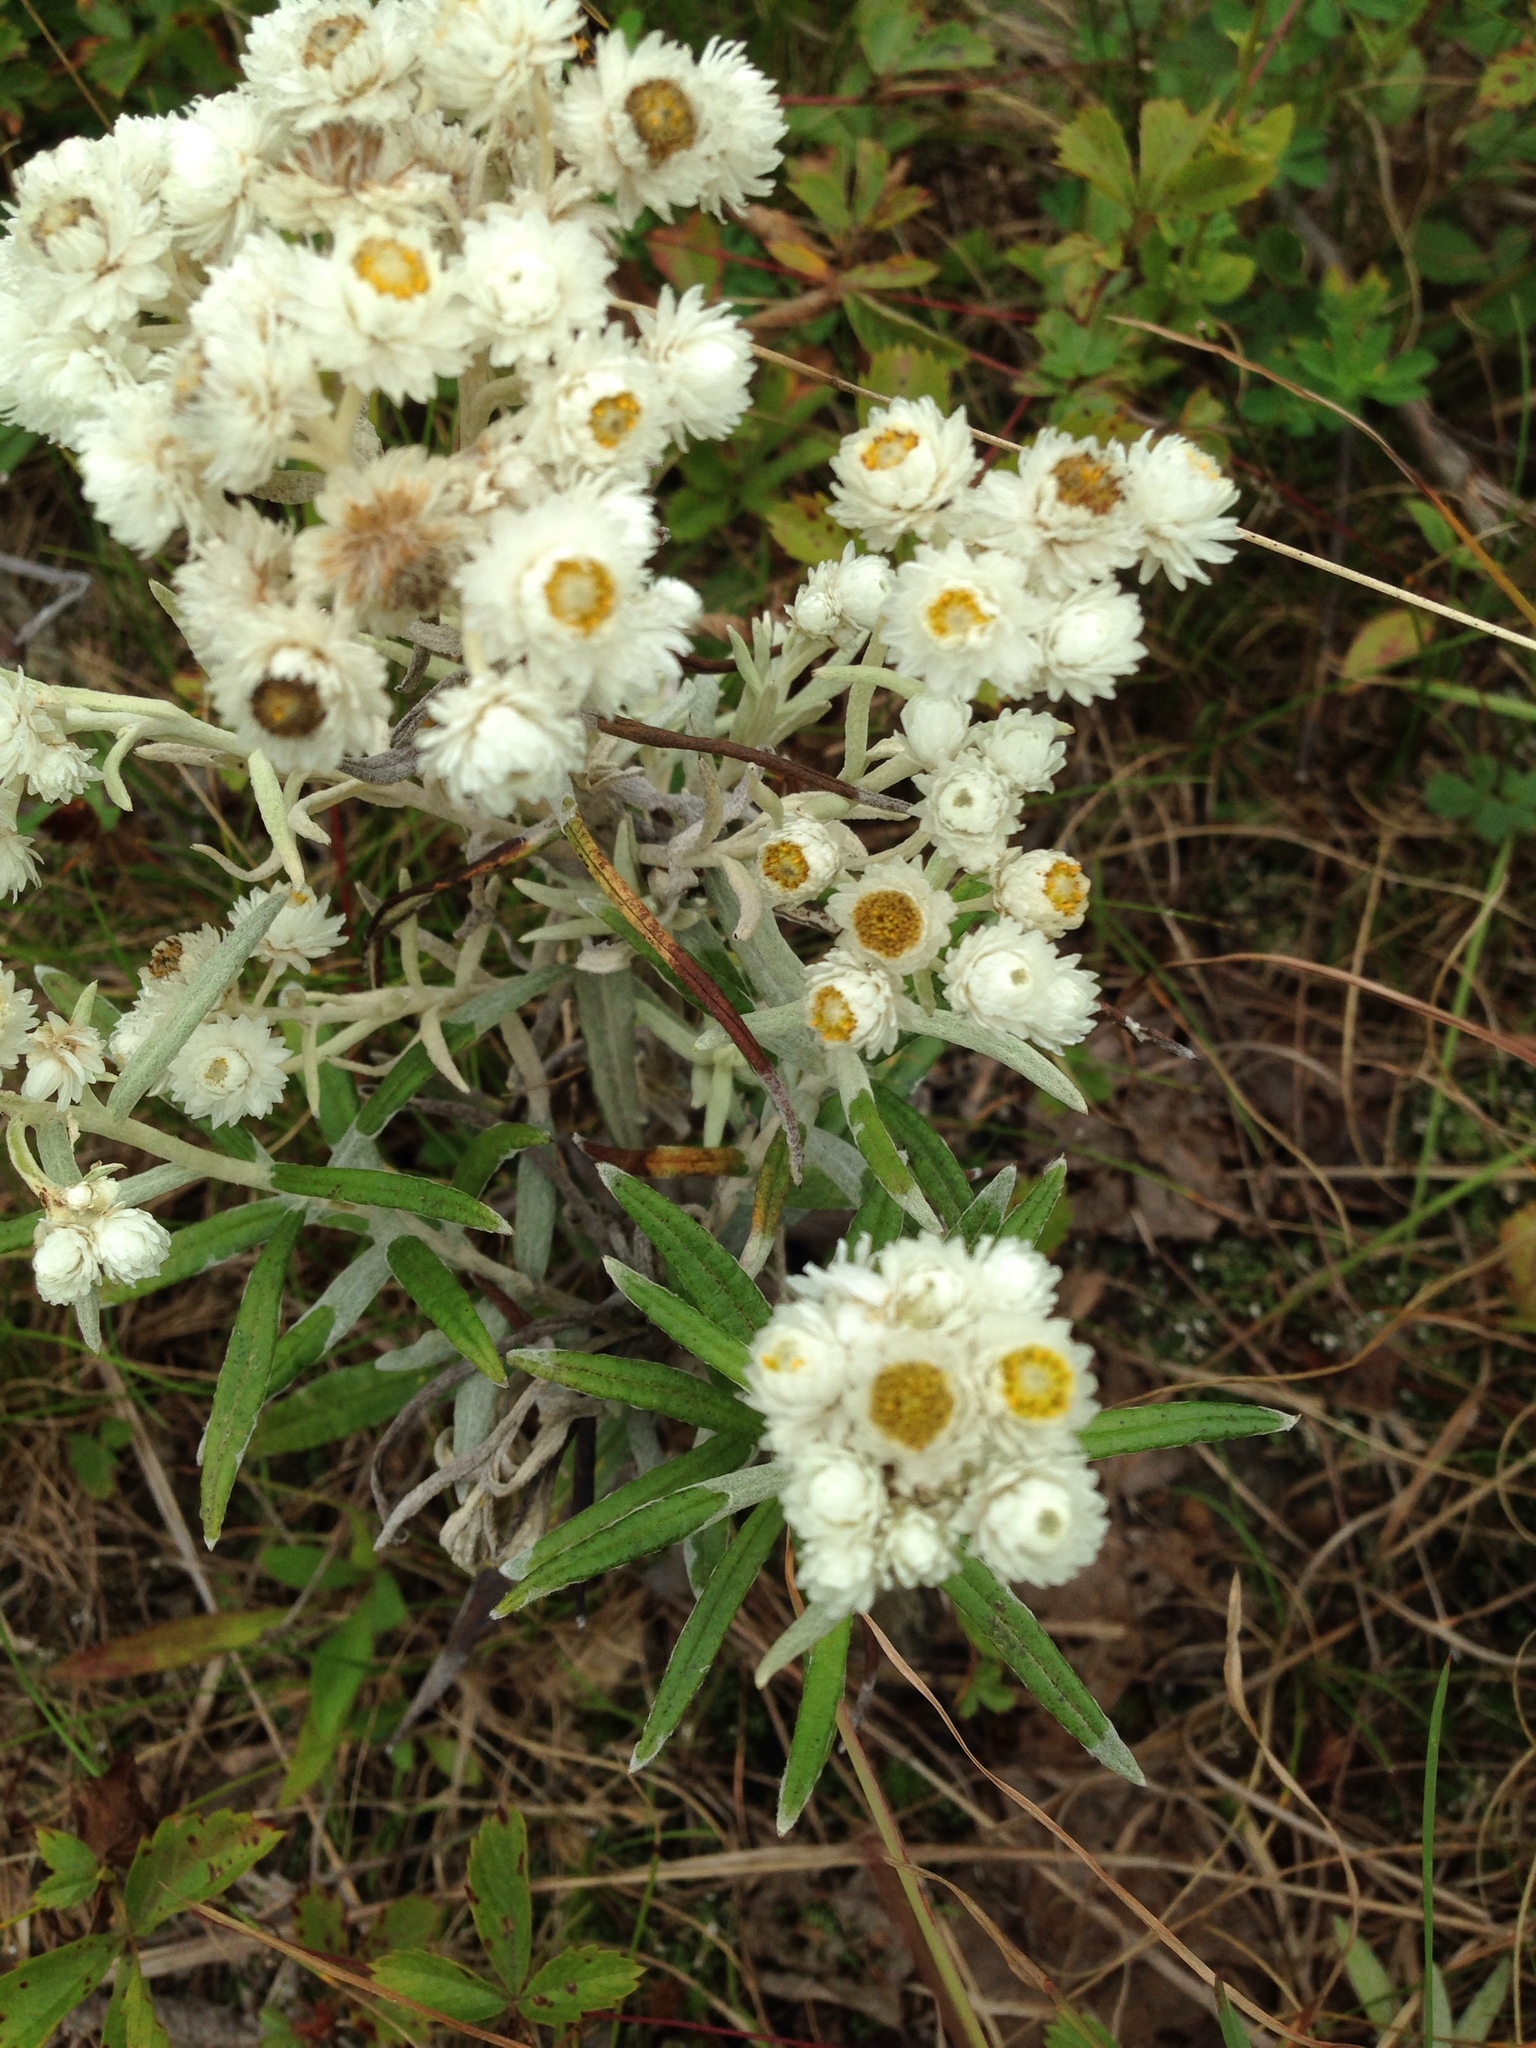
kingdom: Plantae
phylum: Tracheophyta
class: Magnoliopsida
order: Asterales
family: Asteraceae
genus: Anaphalis
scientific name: Anaphalis margaritacea
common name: Pearly everlasting
